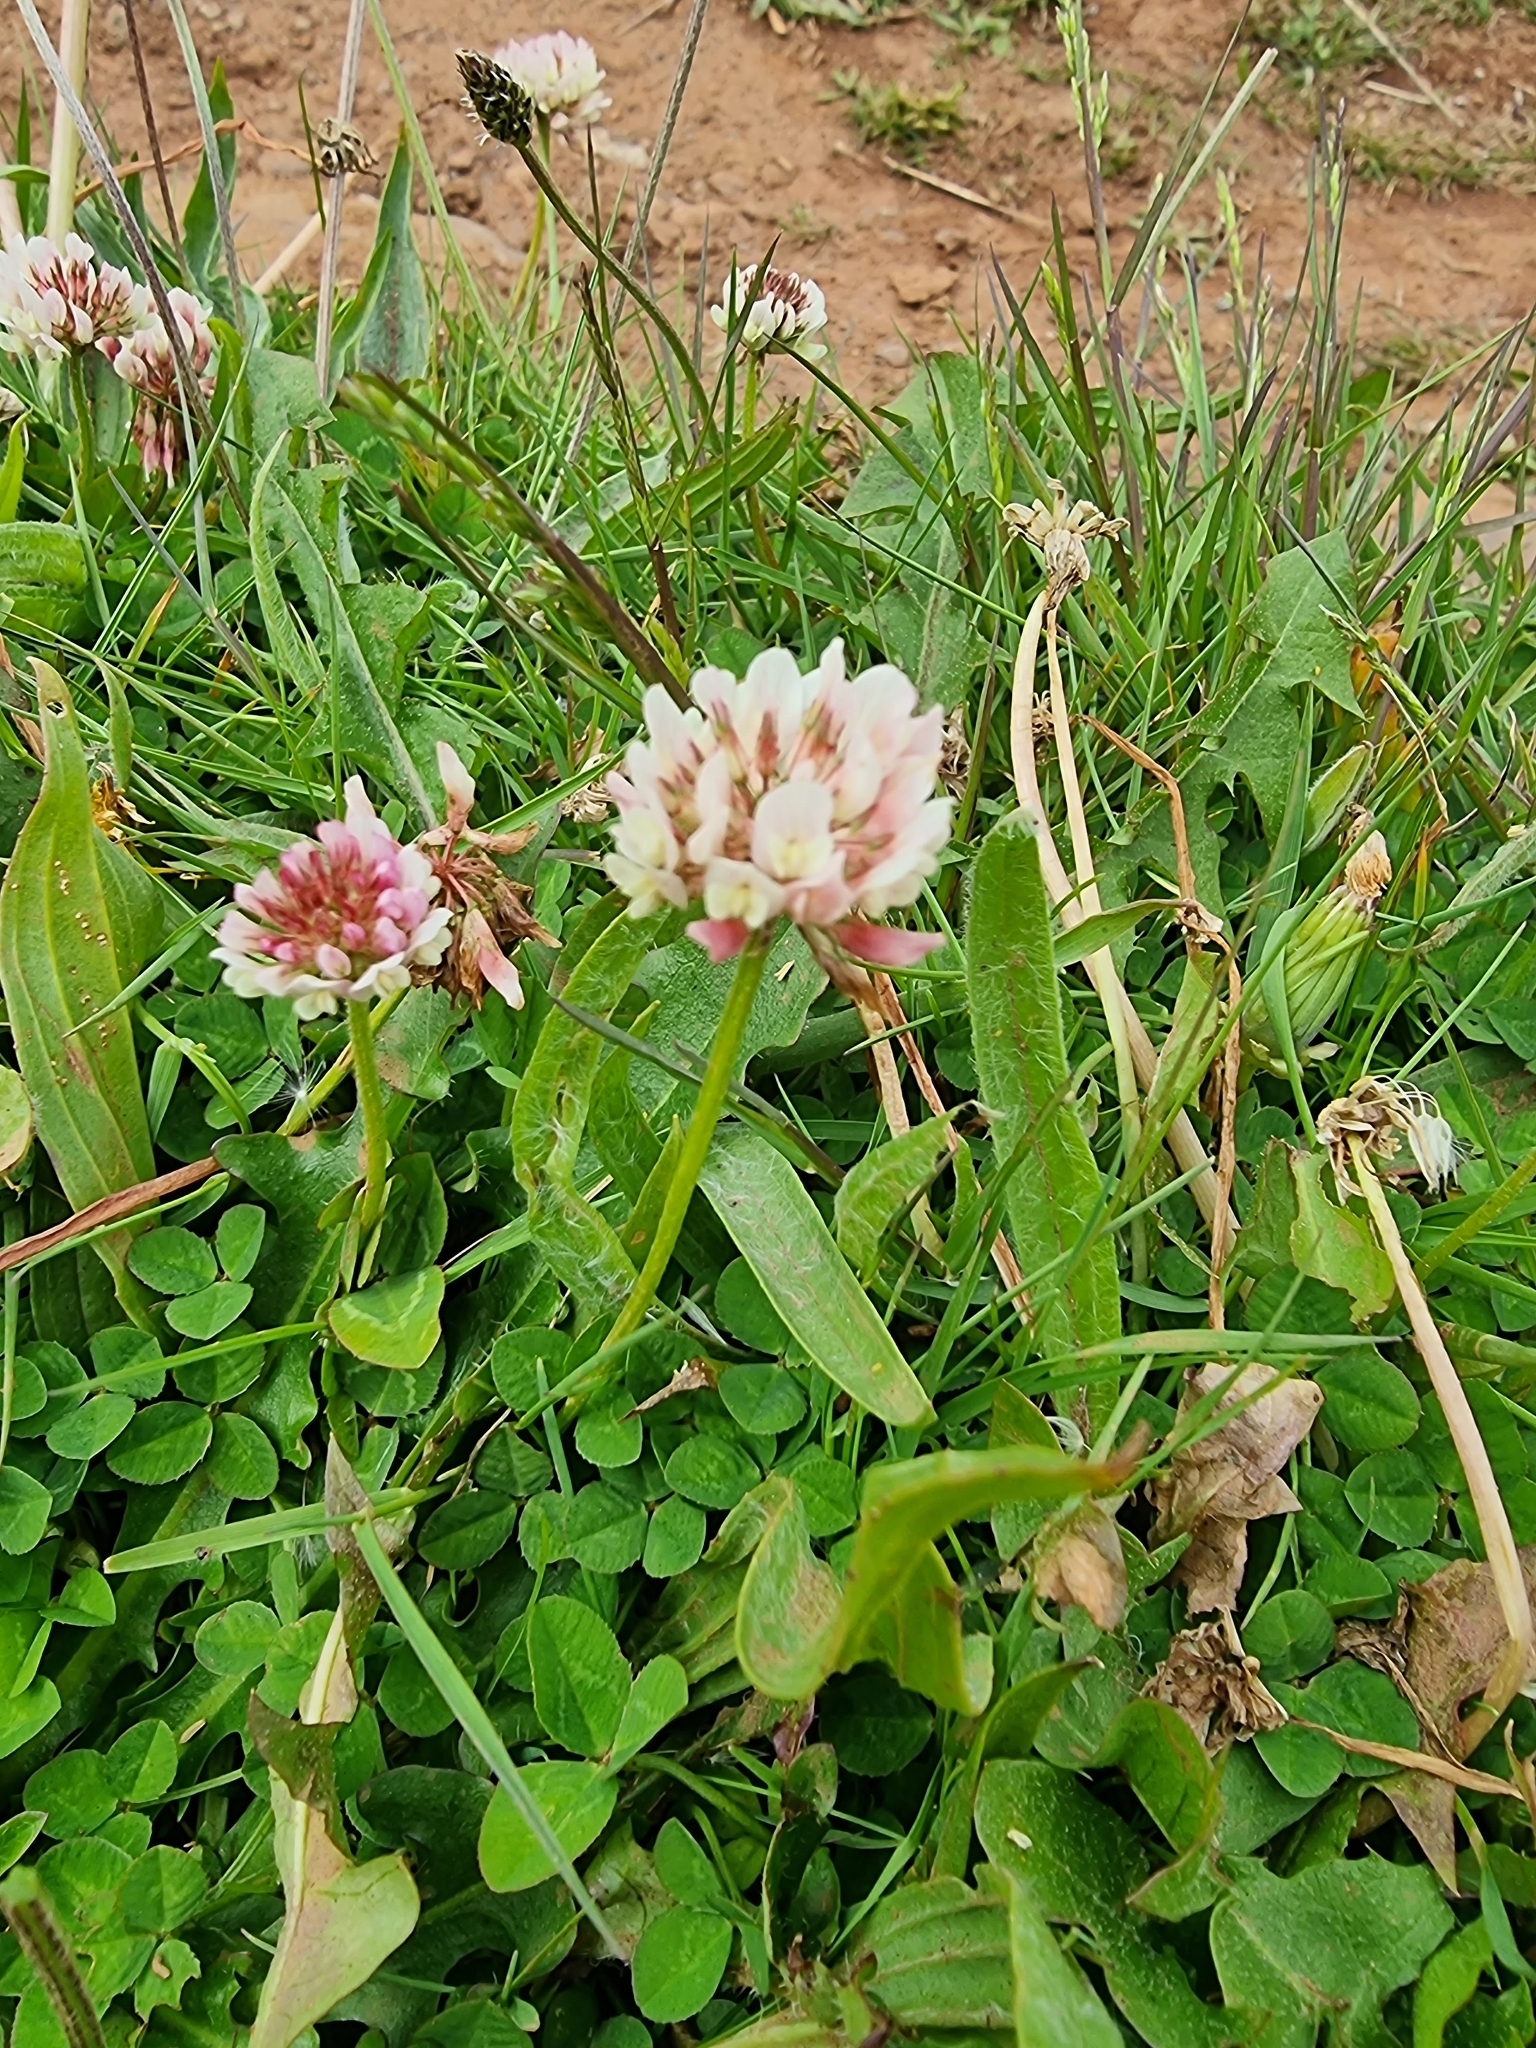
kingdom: Plantae
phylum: Tracheophyta
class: Magnoliopsida
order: Fabales
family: Fabaceae
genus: Trifolium
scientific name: Trifolium repens
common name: White clover
